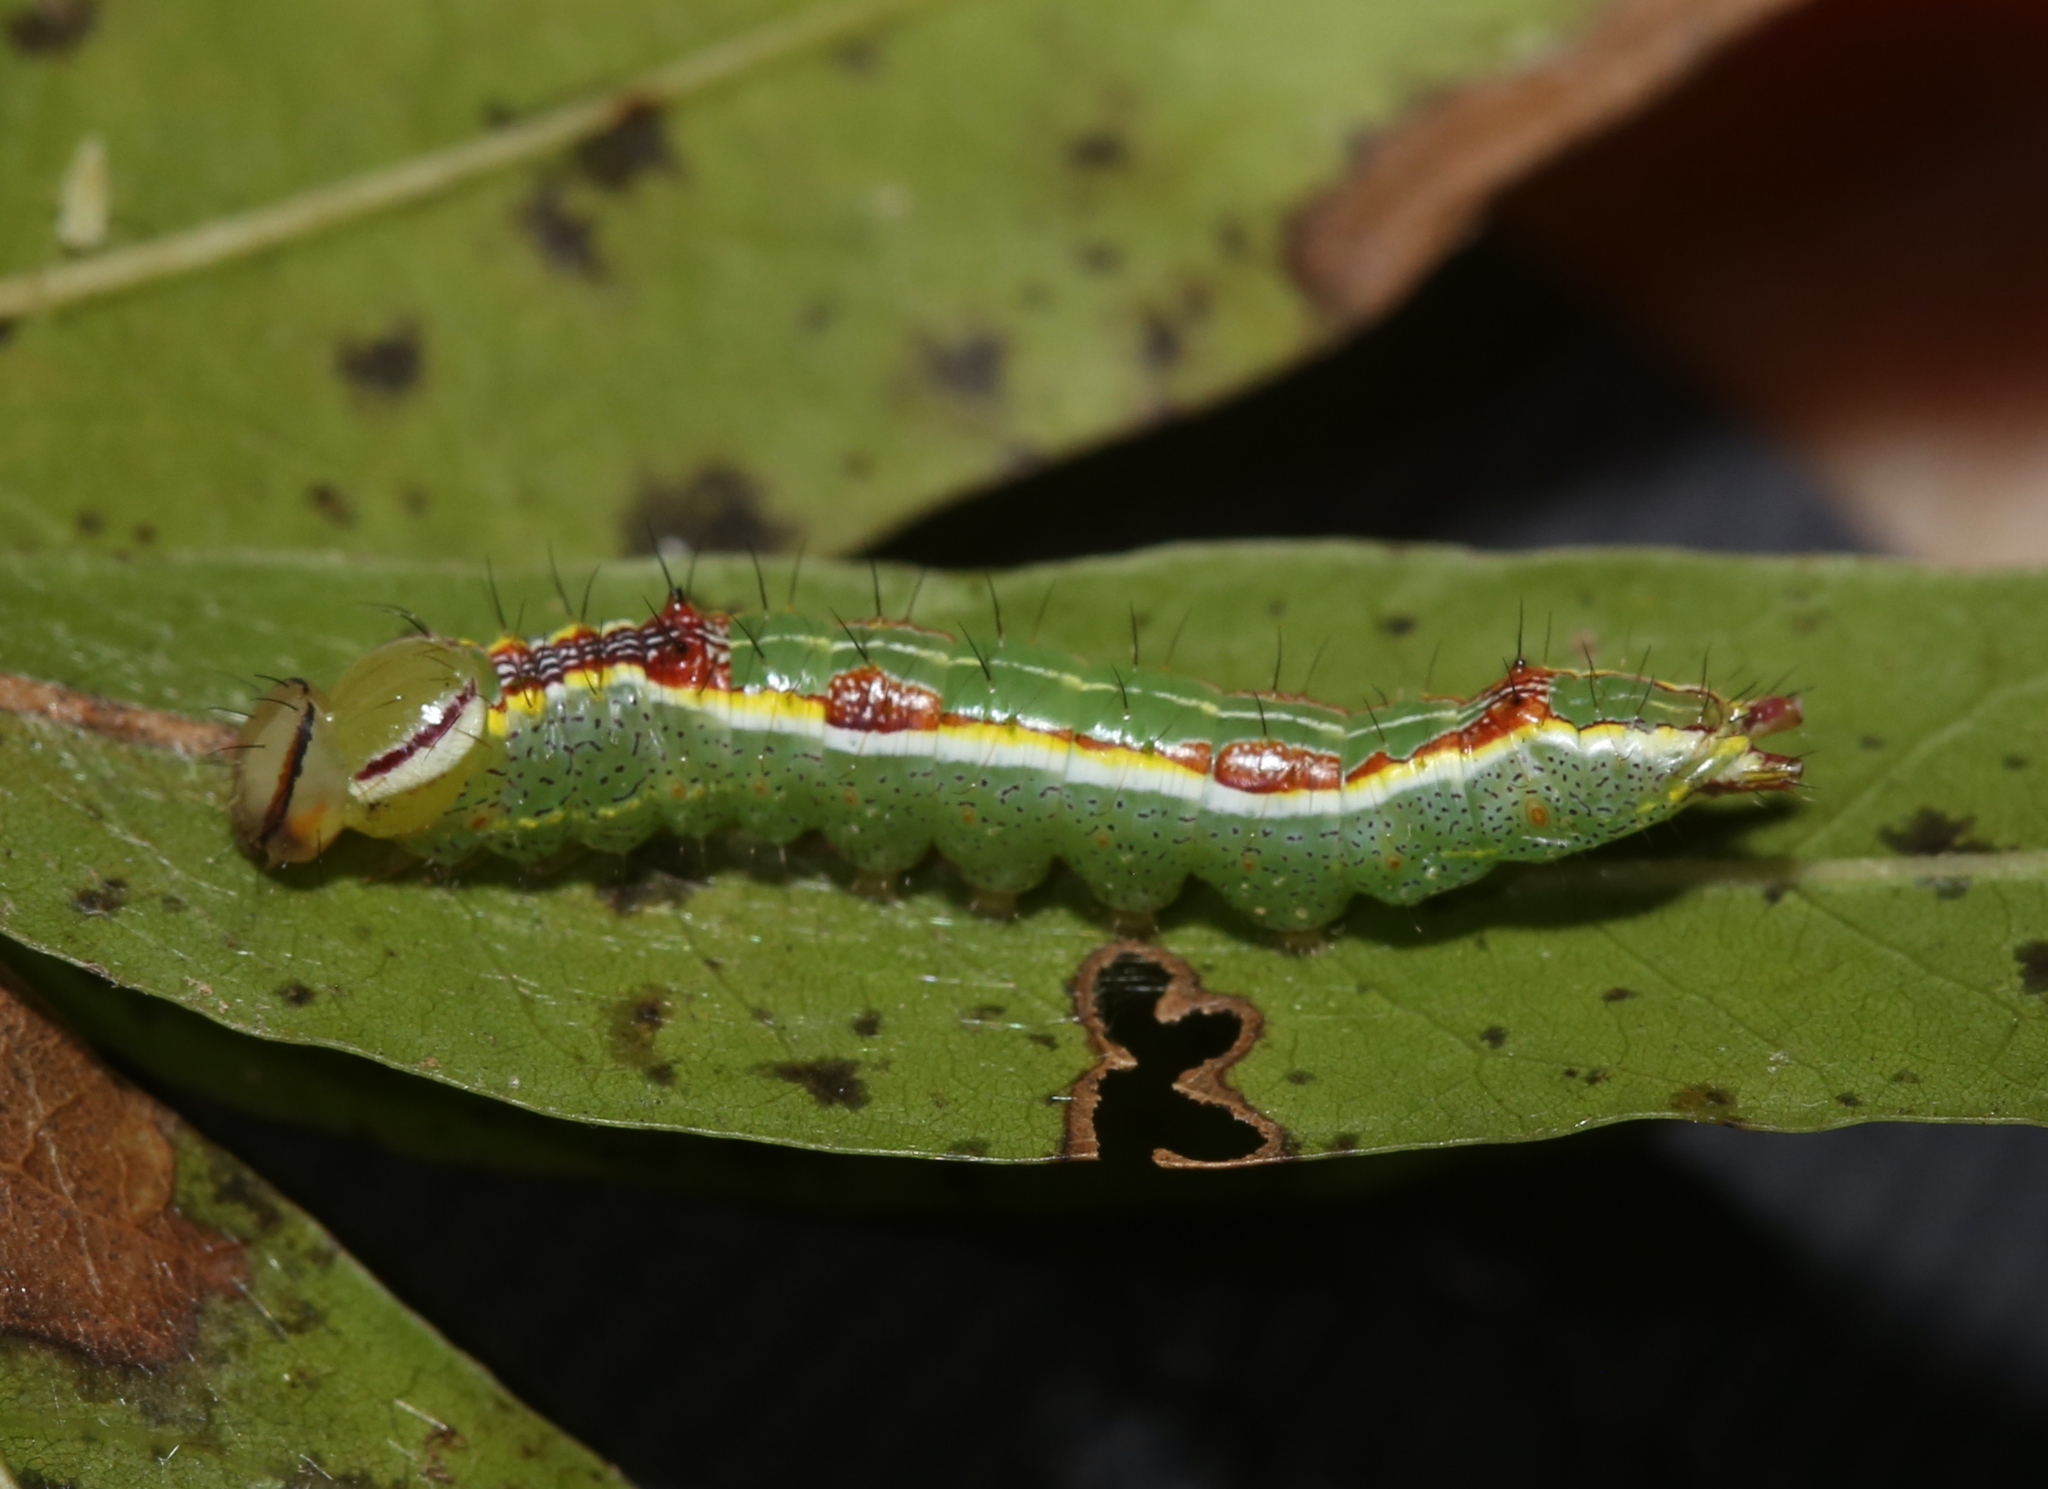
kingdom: Animalia
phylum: Arthropoda
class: Insecta
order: Lepidoptera
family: Notodontidae
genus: Lochmaeus
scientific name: Lochmaeus manteo
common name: Variable oakleaf caterpillar moth
